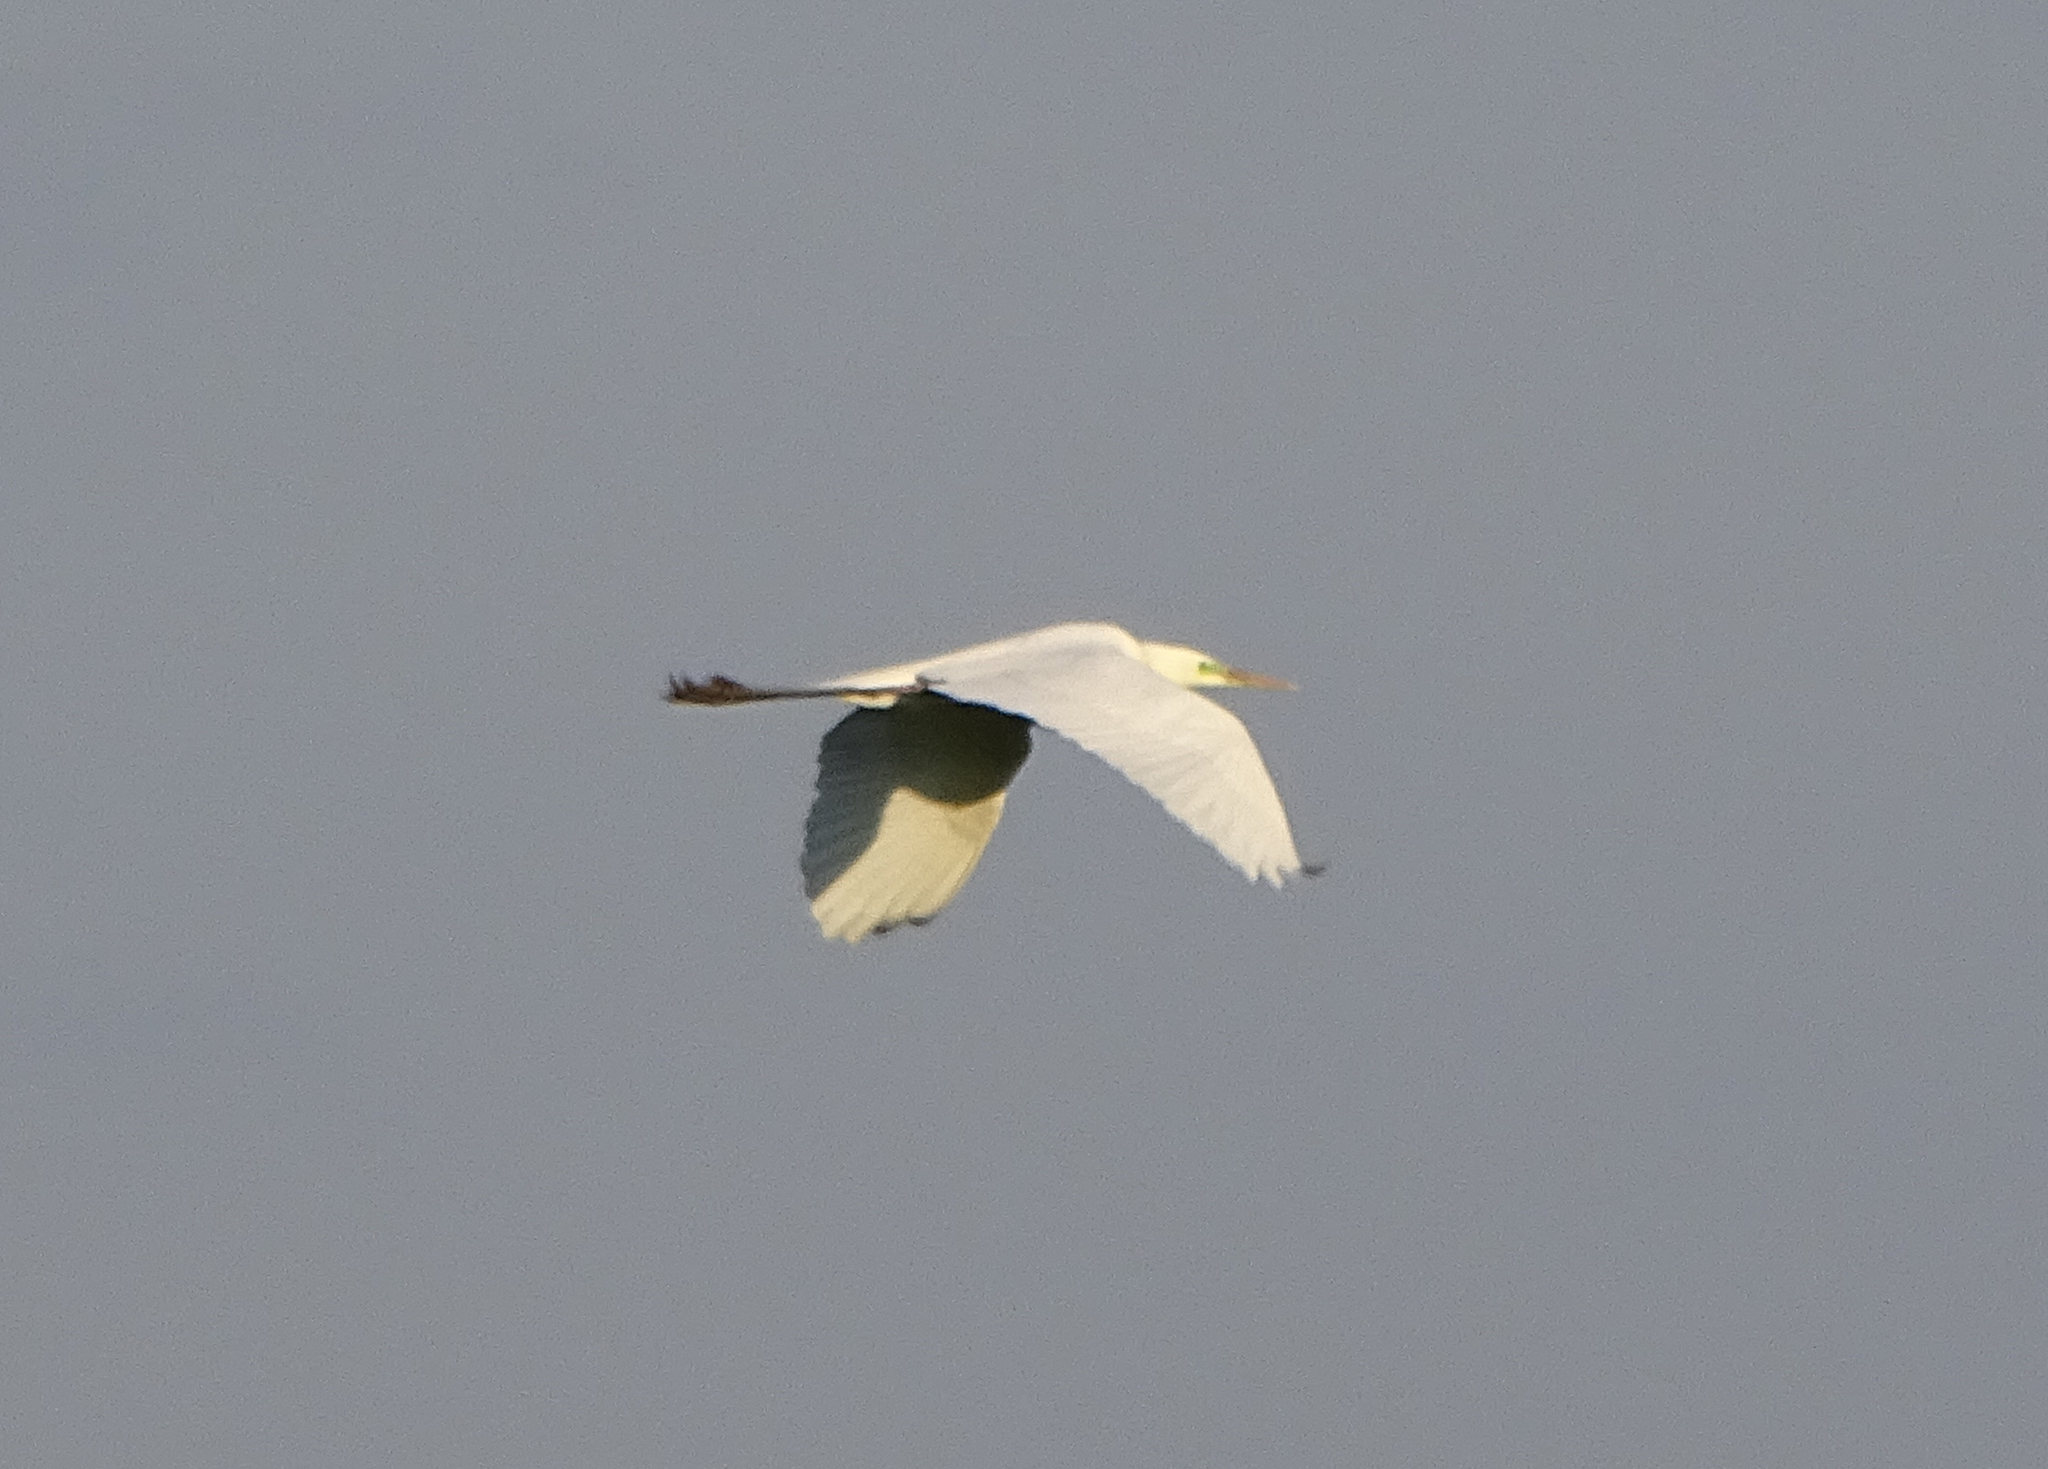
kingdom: Animalia
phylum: Chordata
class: Aves
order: Pelecaniformes
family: Ardeidae
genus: Ardea
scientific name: Ardea alba
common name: Great egret
